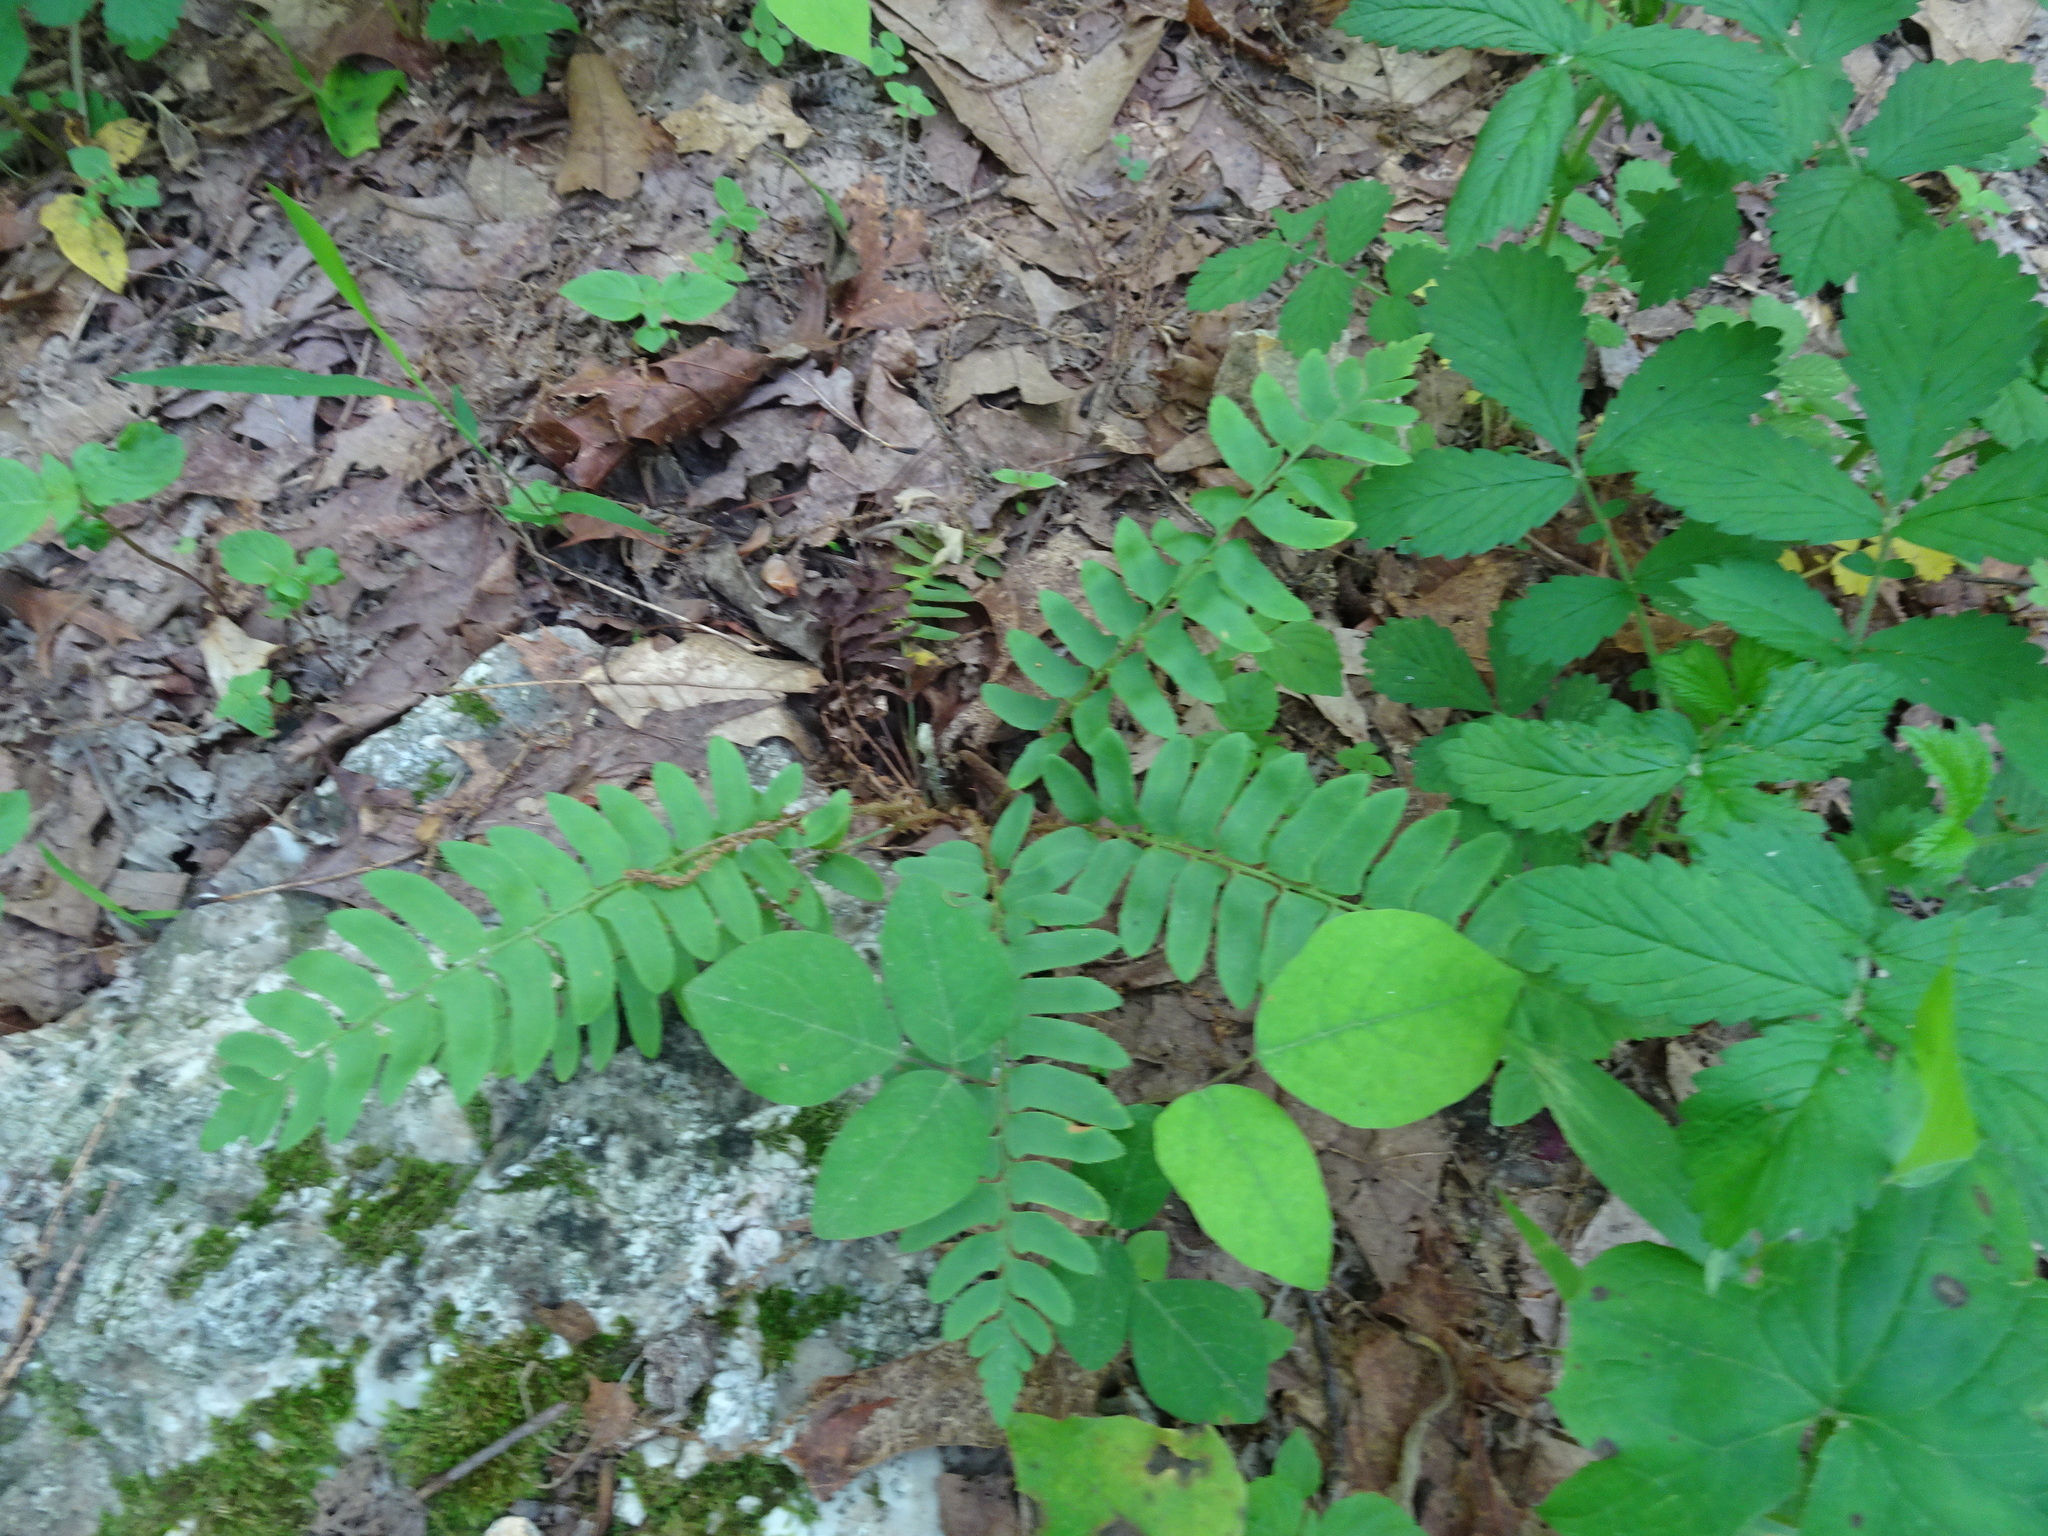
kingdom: Plantae
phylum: Tracheophyta
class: Polypodiopsida
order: Polypodiales
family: Dryopteridaceae
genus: Polystichum
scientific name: Polystichum acrostichoides
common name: Christmas fern
